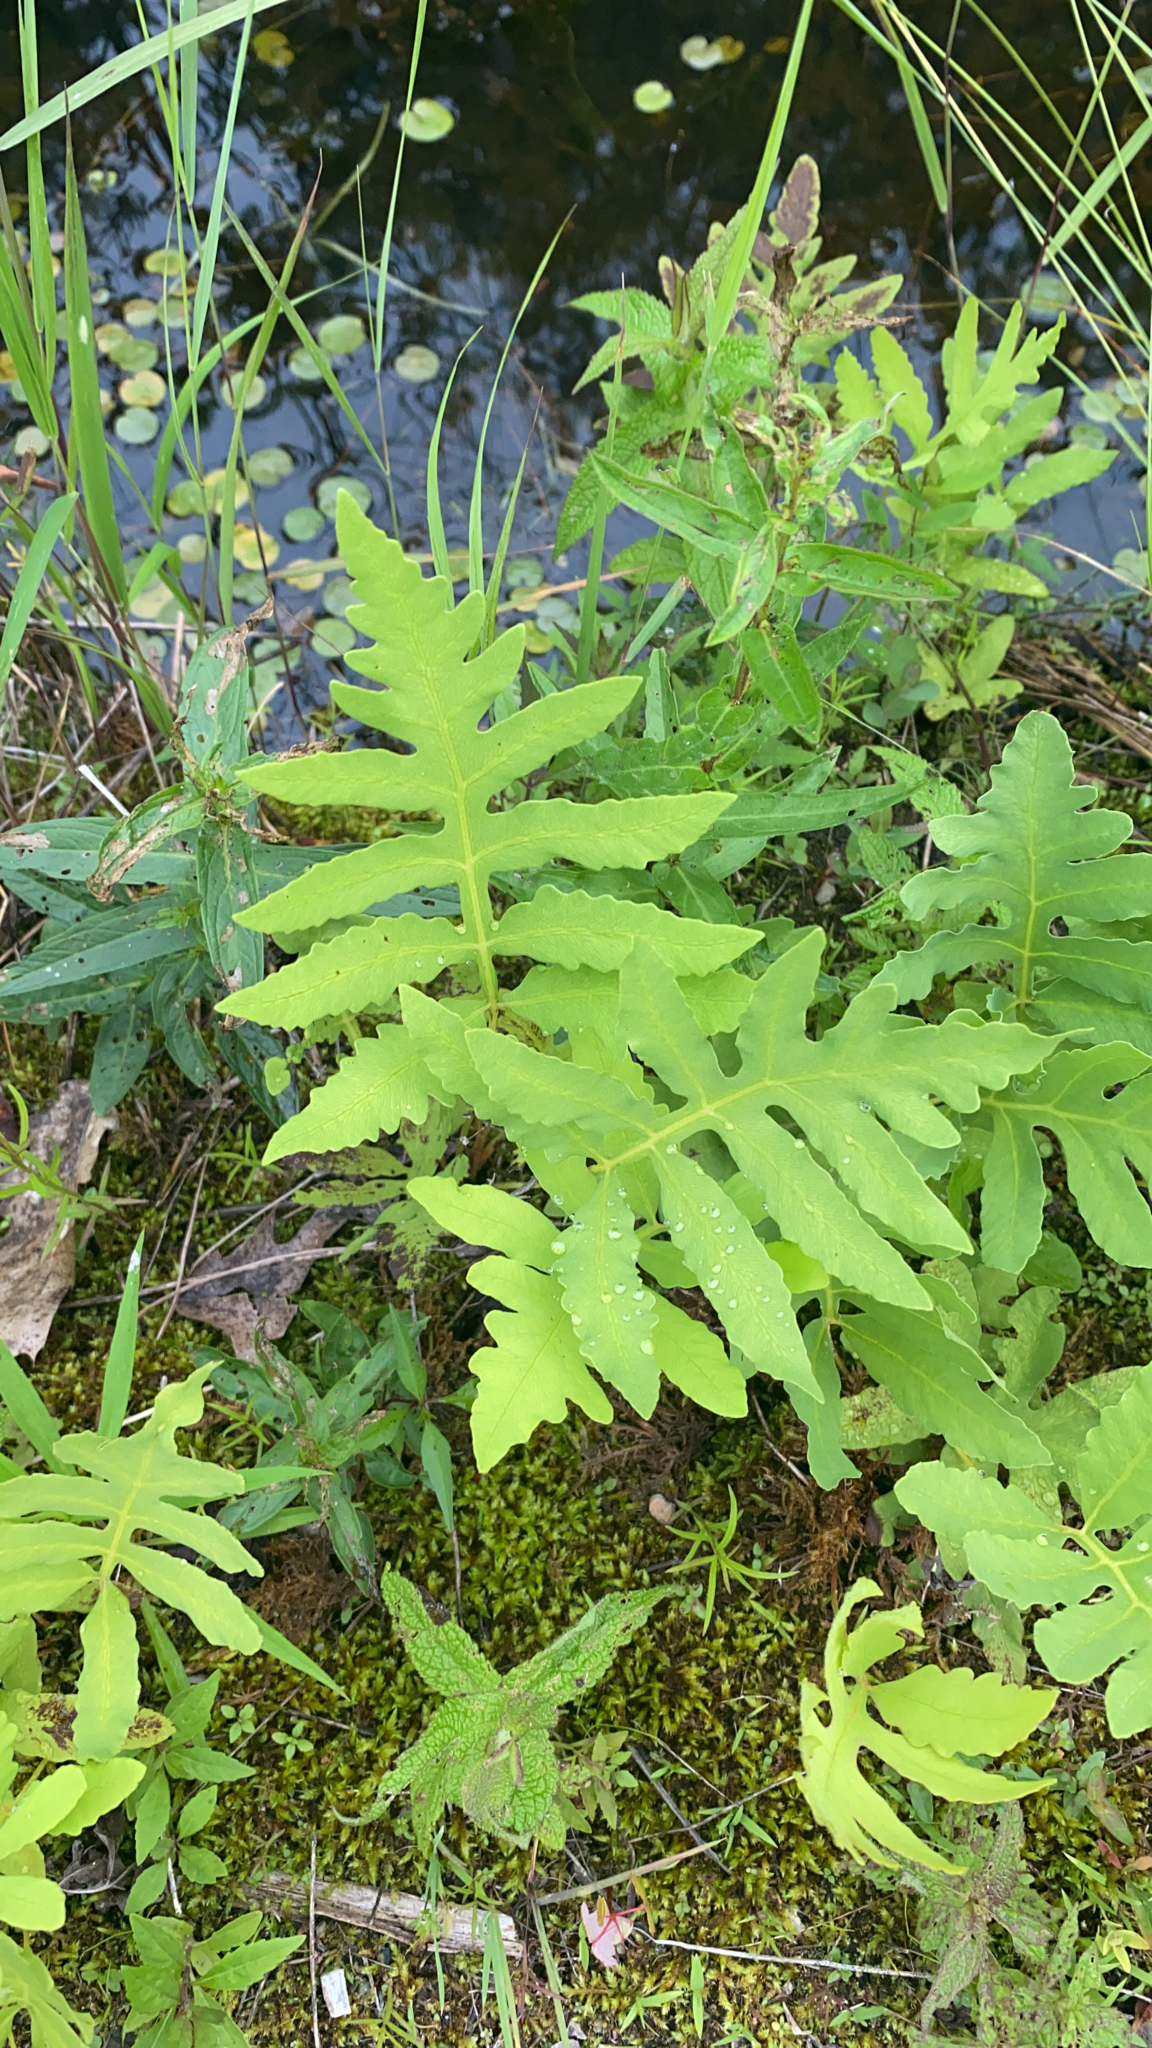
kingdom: Plantae
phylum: Tracheophyta
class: Polypodiopsida
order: Polypodiales
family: Onocleaceae
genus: Onoclea
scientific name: Onoclea sensibilis
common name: Sensitive fern
